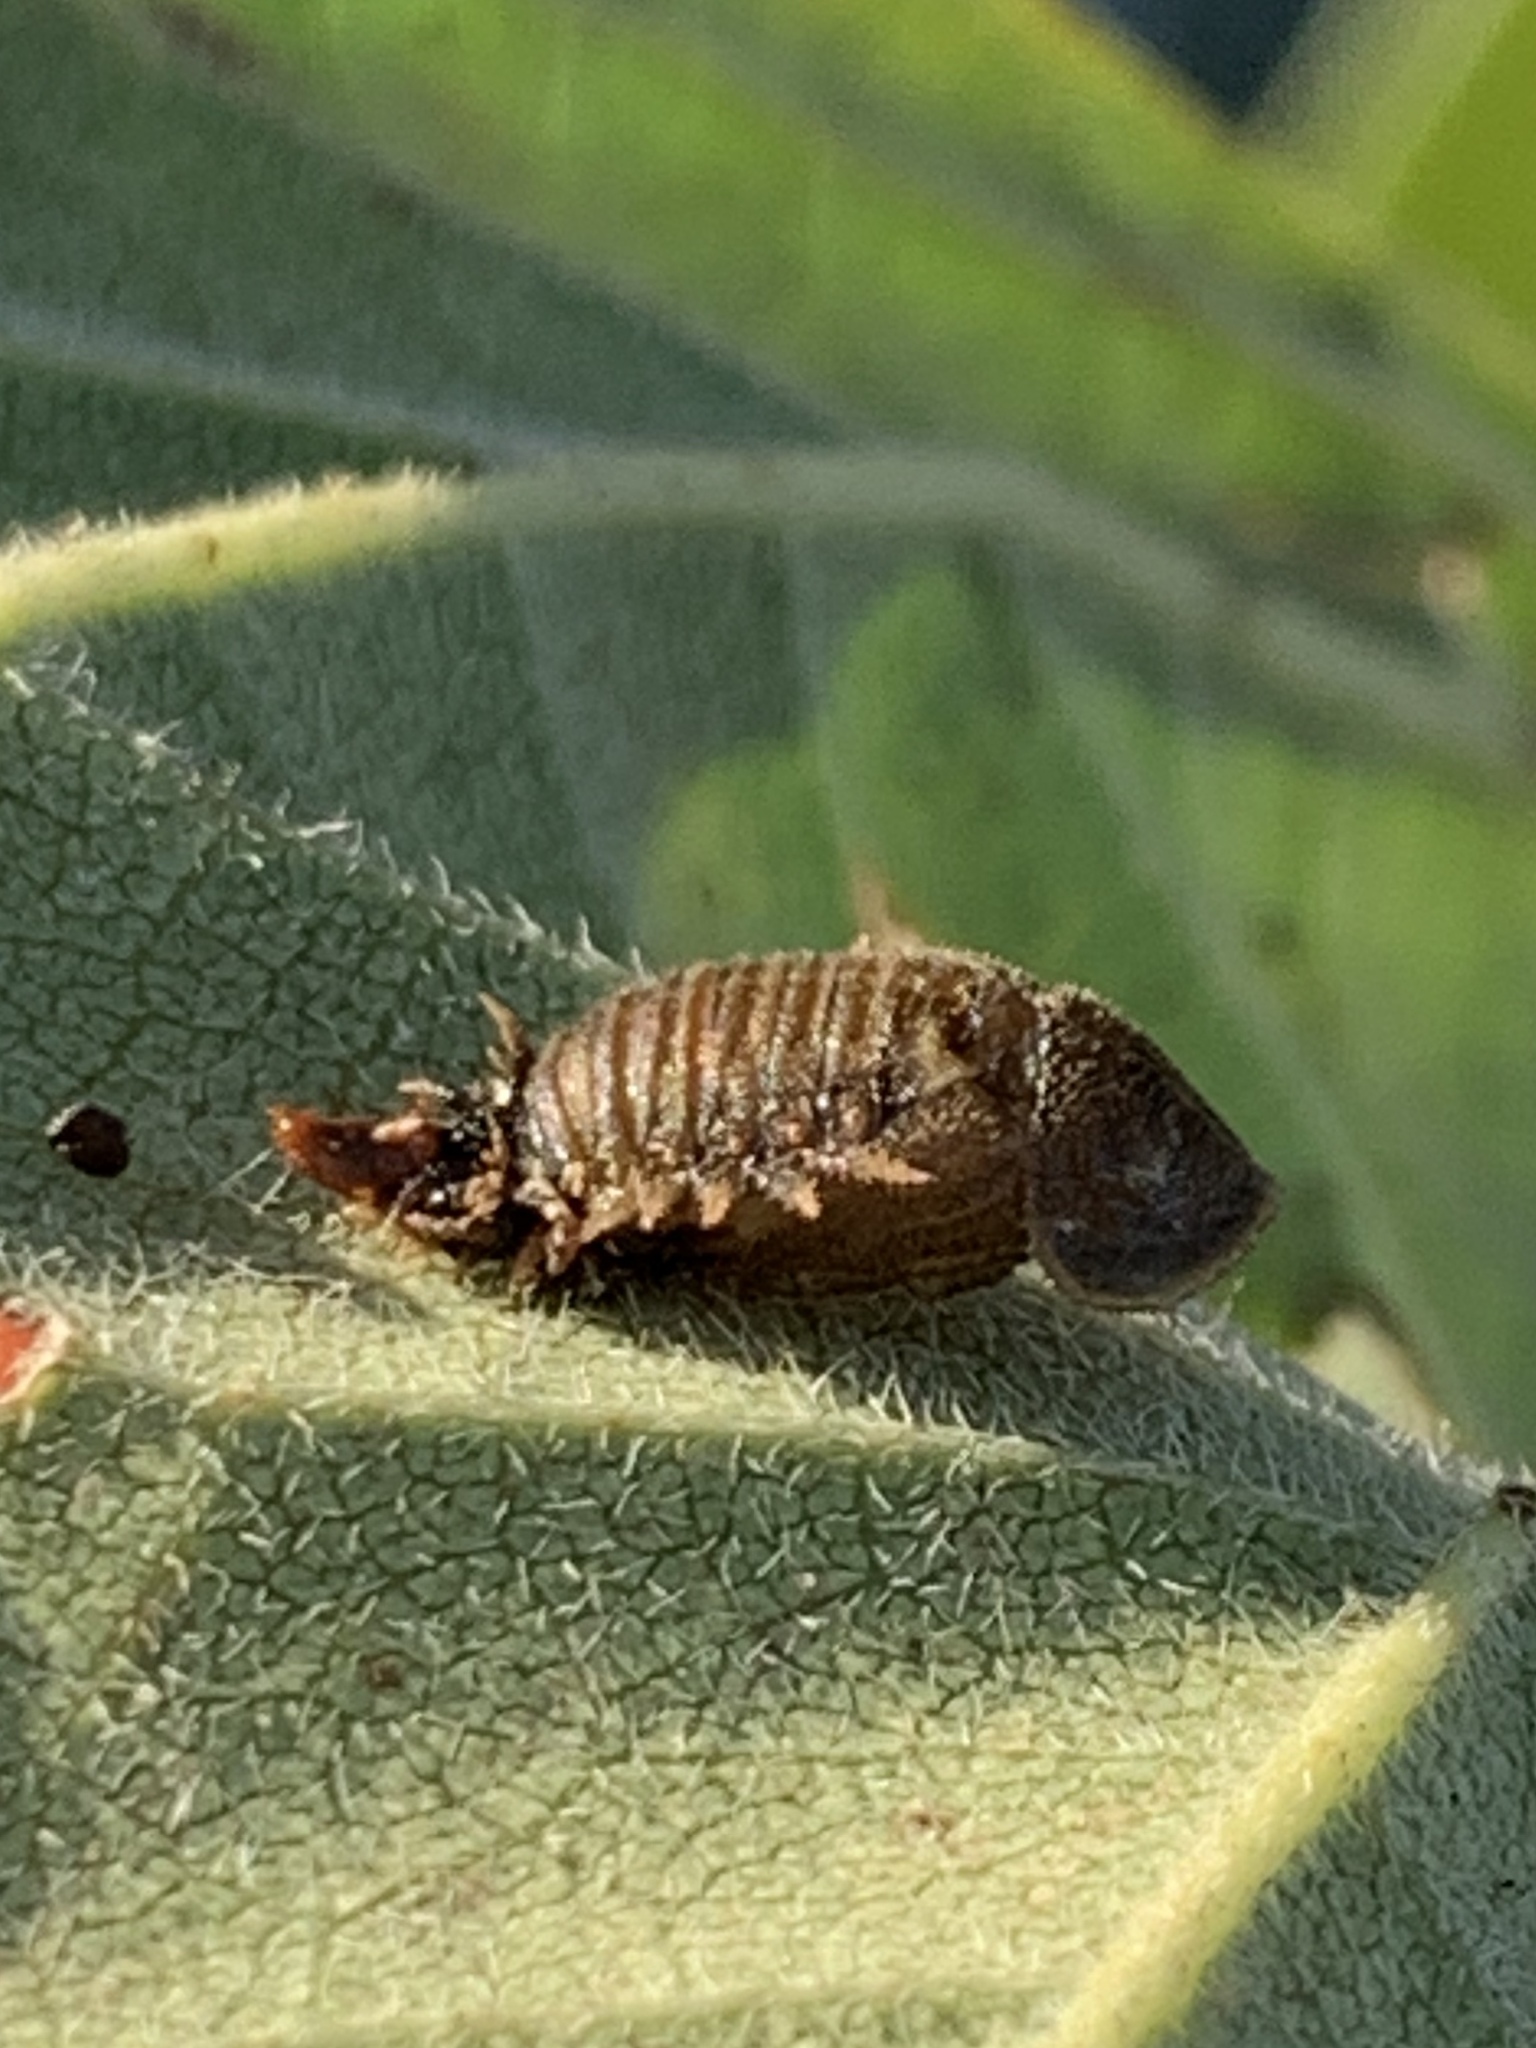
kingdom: Animalia
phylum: Arthropoda
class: Insecta
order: Coleoptera
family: Chrysomelidae
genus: Eurypepla
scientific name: Eurypepla calochroma
